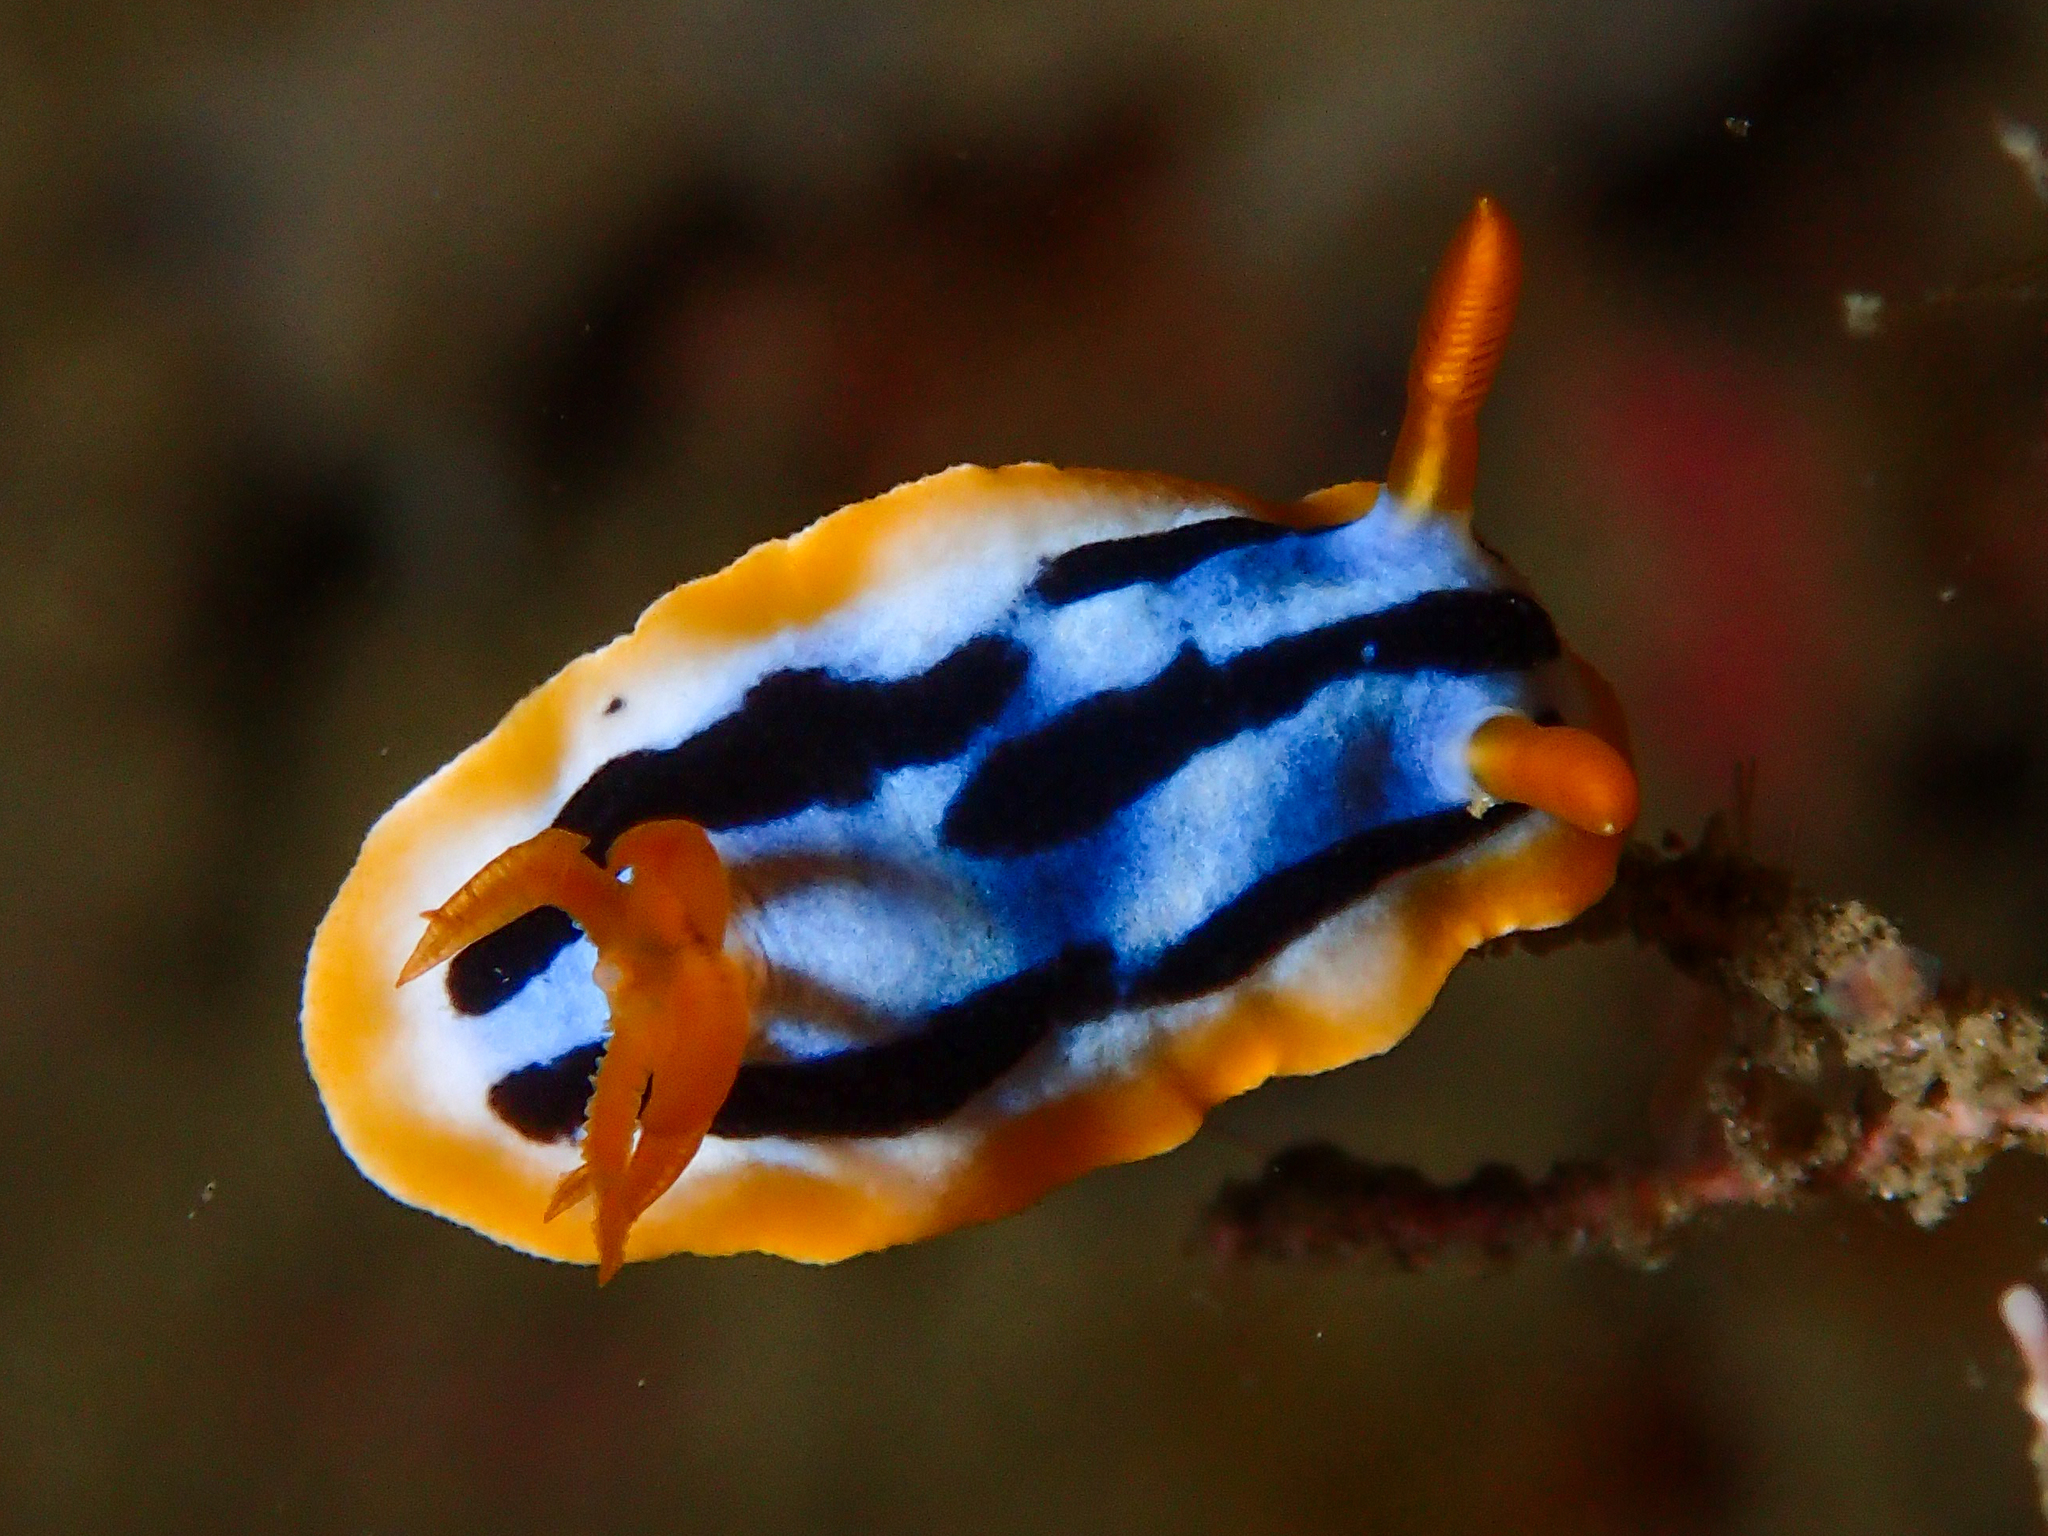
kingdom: Animalia
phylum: Mollusca
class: Gastropoda
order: Nudibranchia
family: Chromodorididae
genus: Chromodoris
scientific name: Chromodoris strigata
